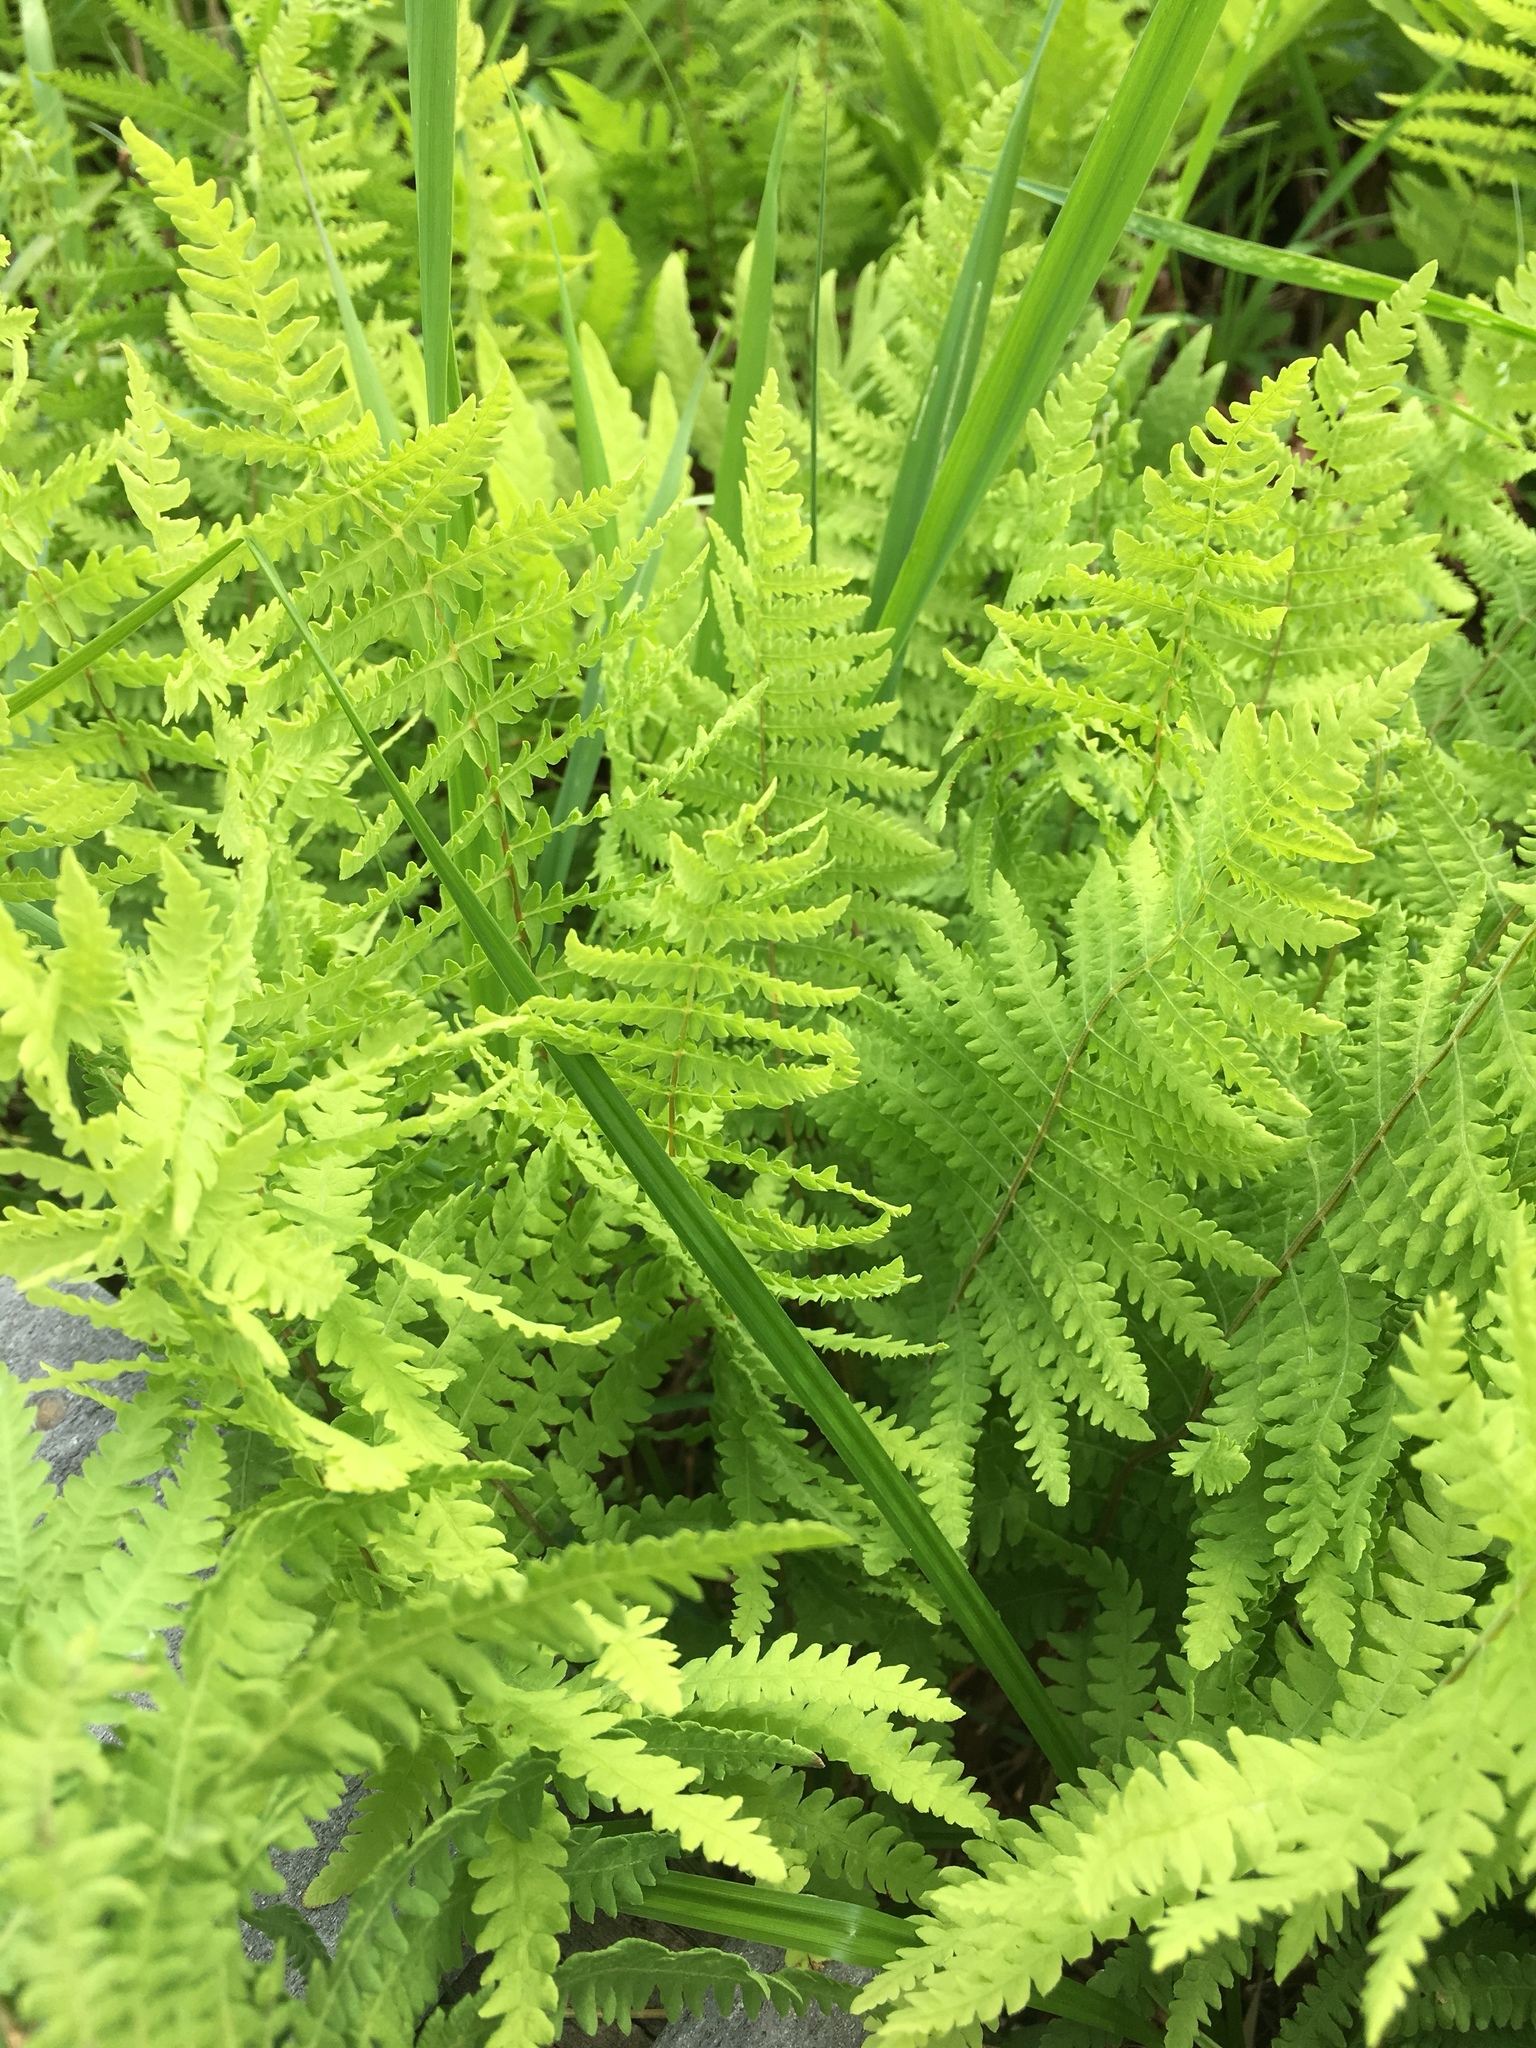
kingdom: Plantae
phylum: Tracheophyta
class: Polypodiopsida
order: Polypodiales
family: Thelypteridaceae
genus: Thelypteris
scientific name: Thelypteris palustris
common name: Marsh fern
